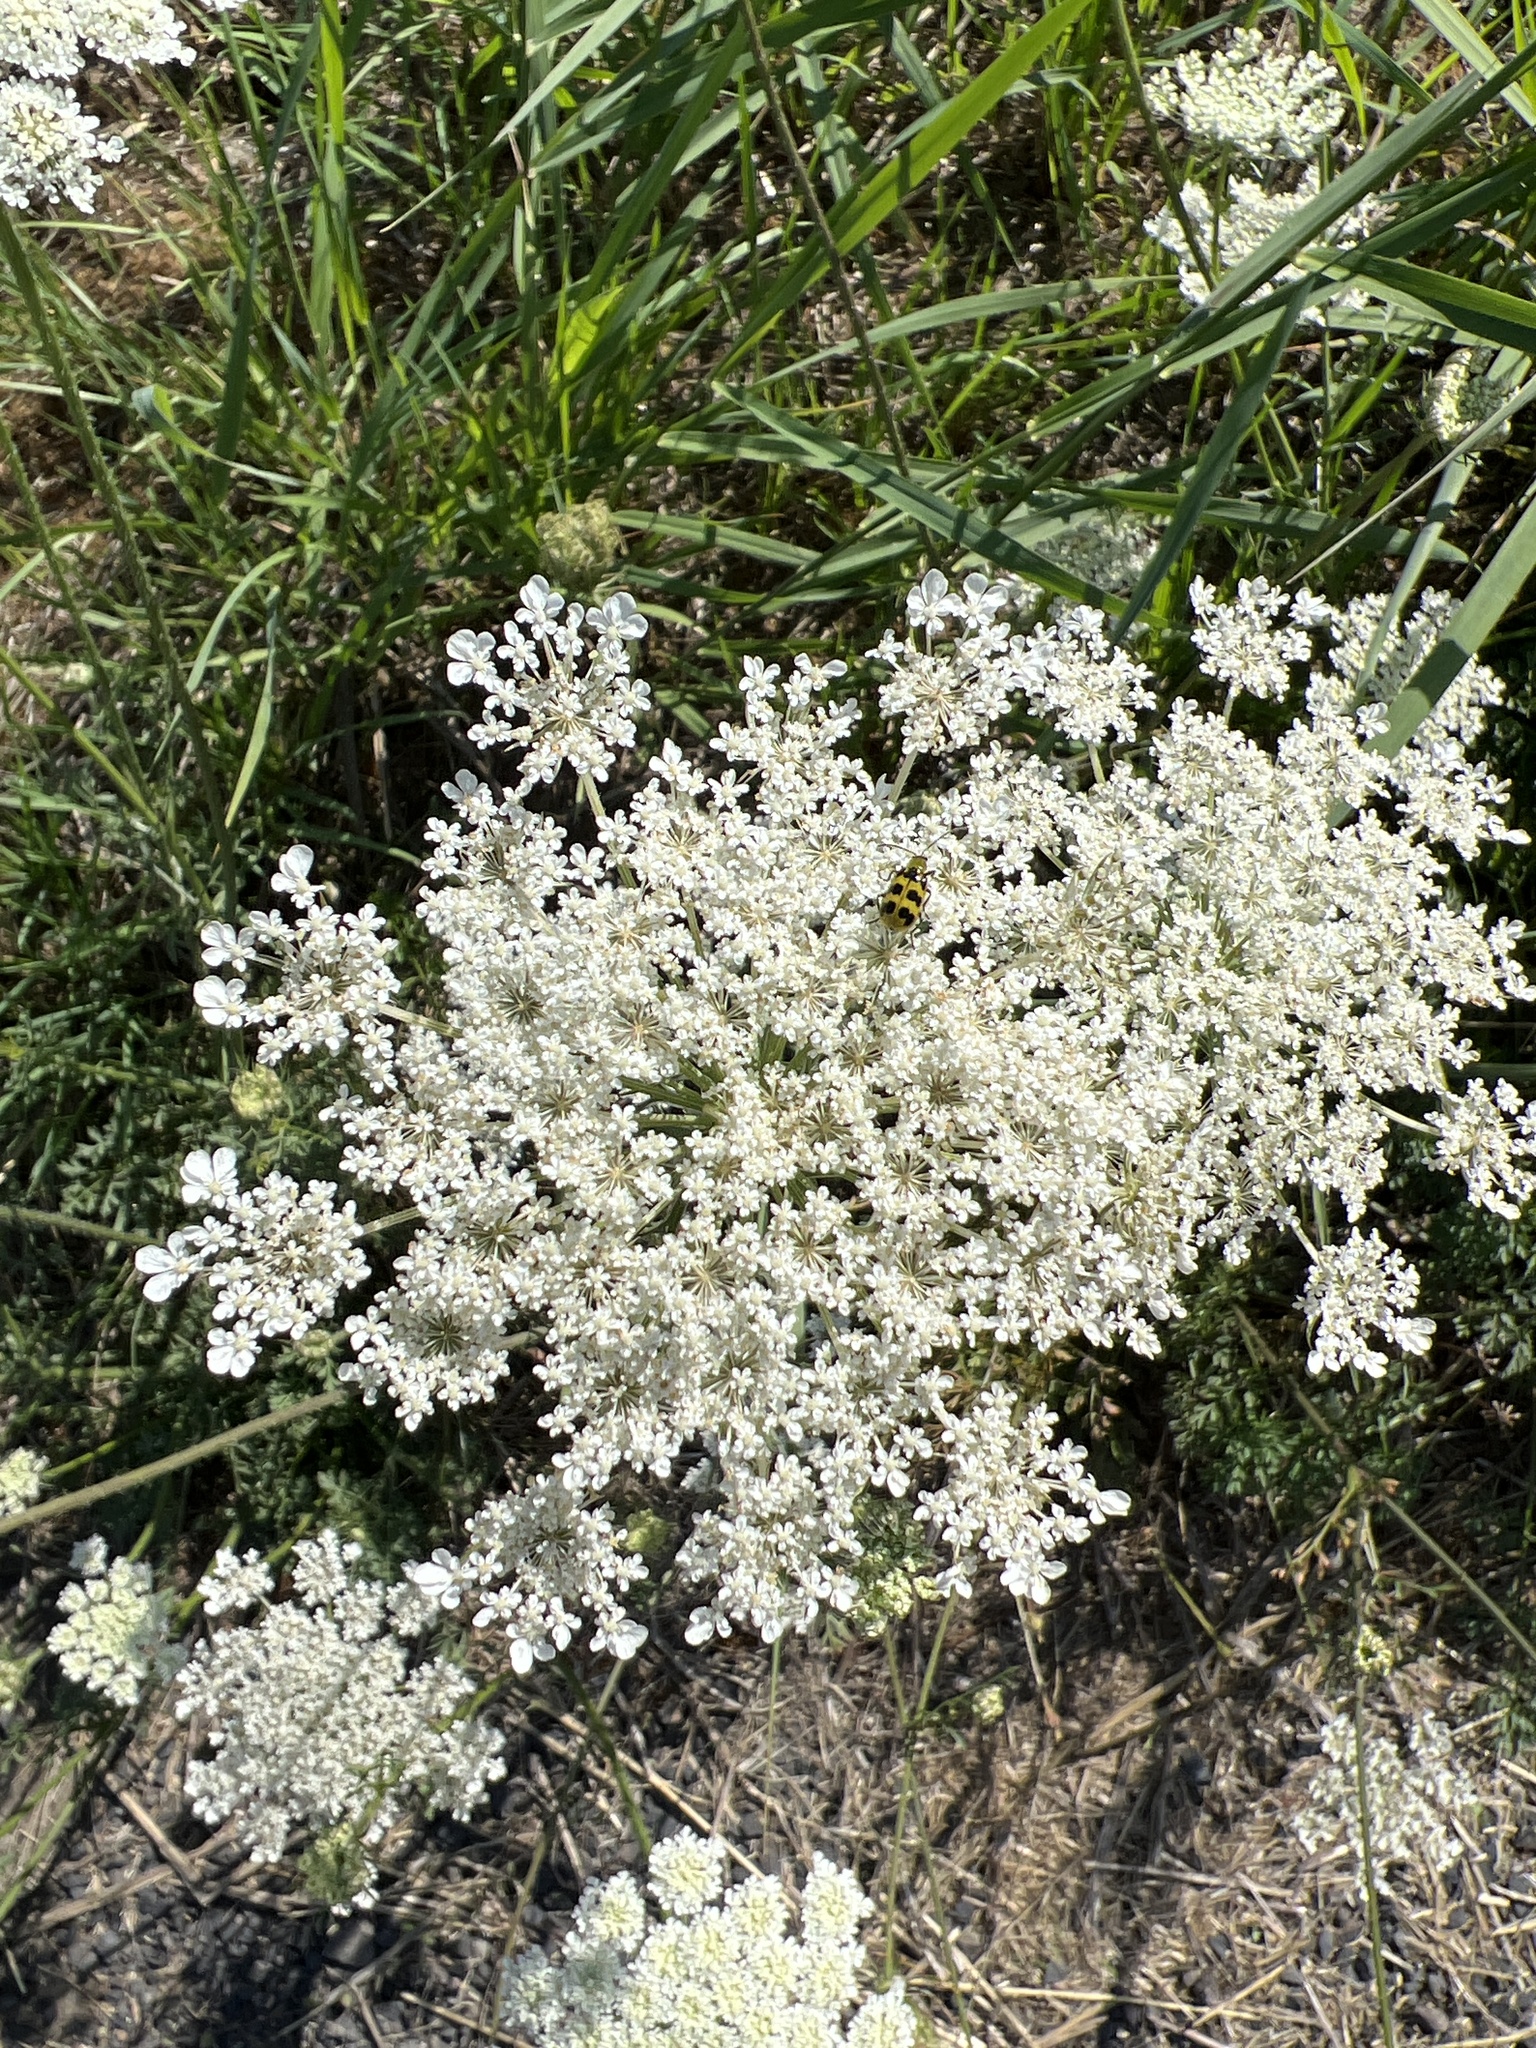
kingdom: Animalia
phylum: Arthropoda
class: Insecta
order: Coleoptera
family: Chrysomelidae
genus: Diabrotica
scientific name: Diabrotica undecimpunctata
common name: Spotted cucumber beetle
